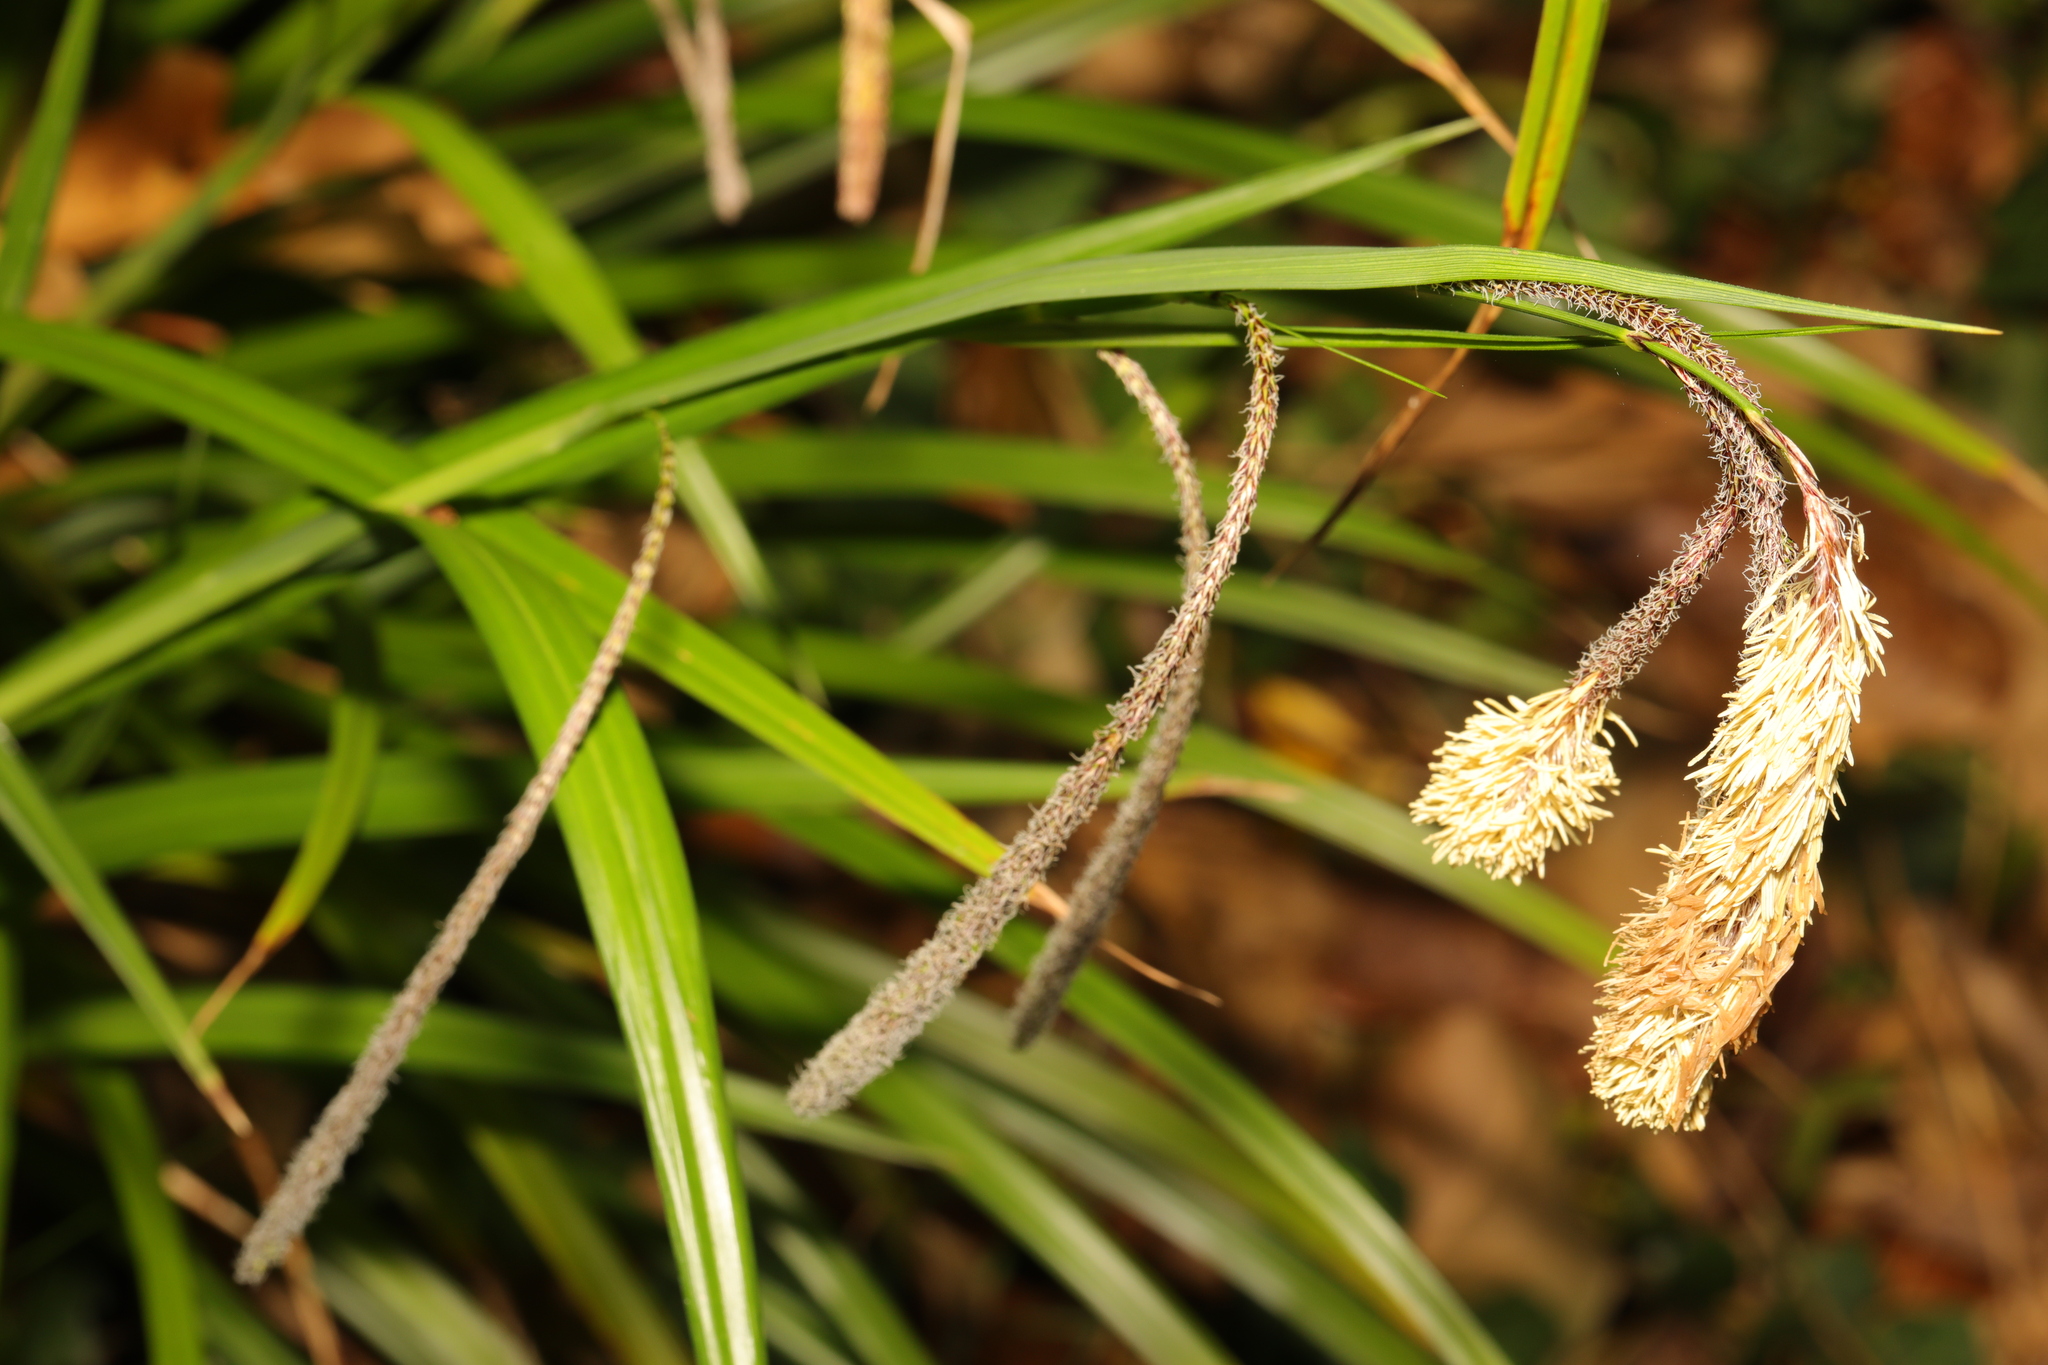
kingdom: Plantae
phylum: Tracheophyta
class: Liliopsida
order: Poales
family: Cyperaceae
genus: Carex
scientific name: Carex pendula
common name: Pendulous sedge
